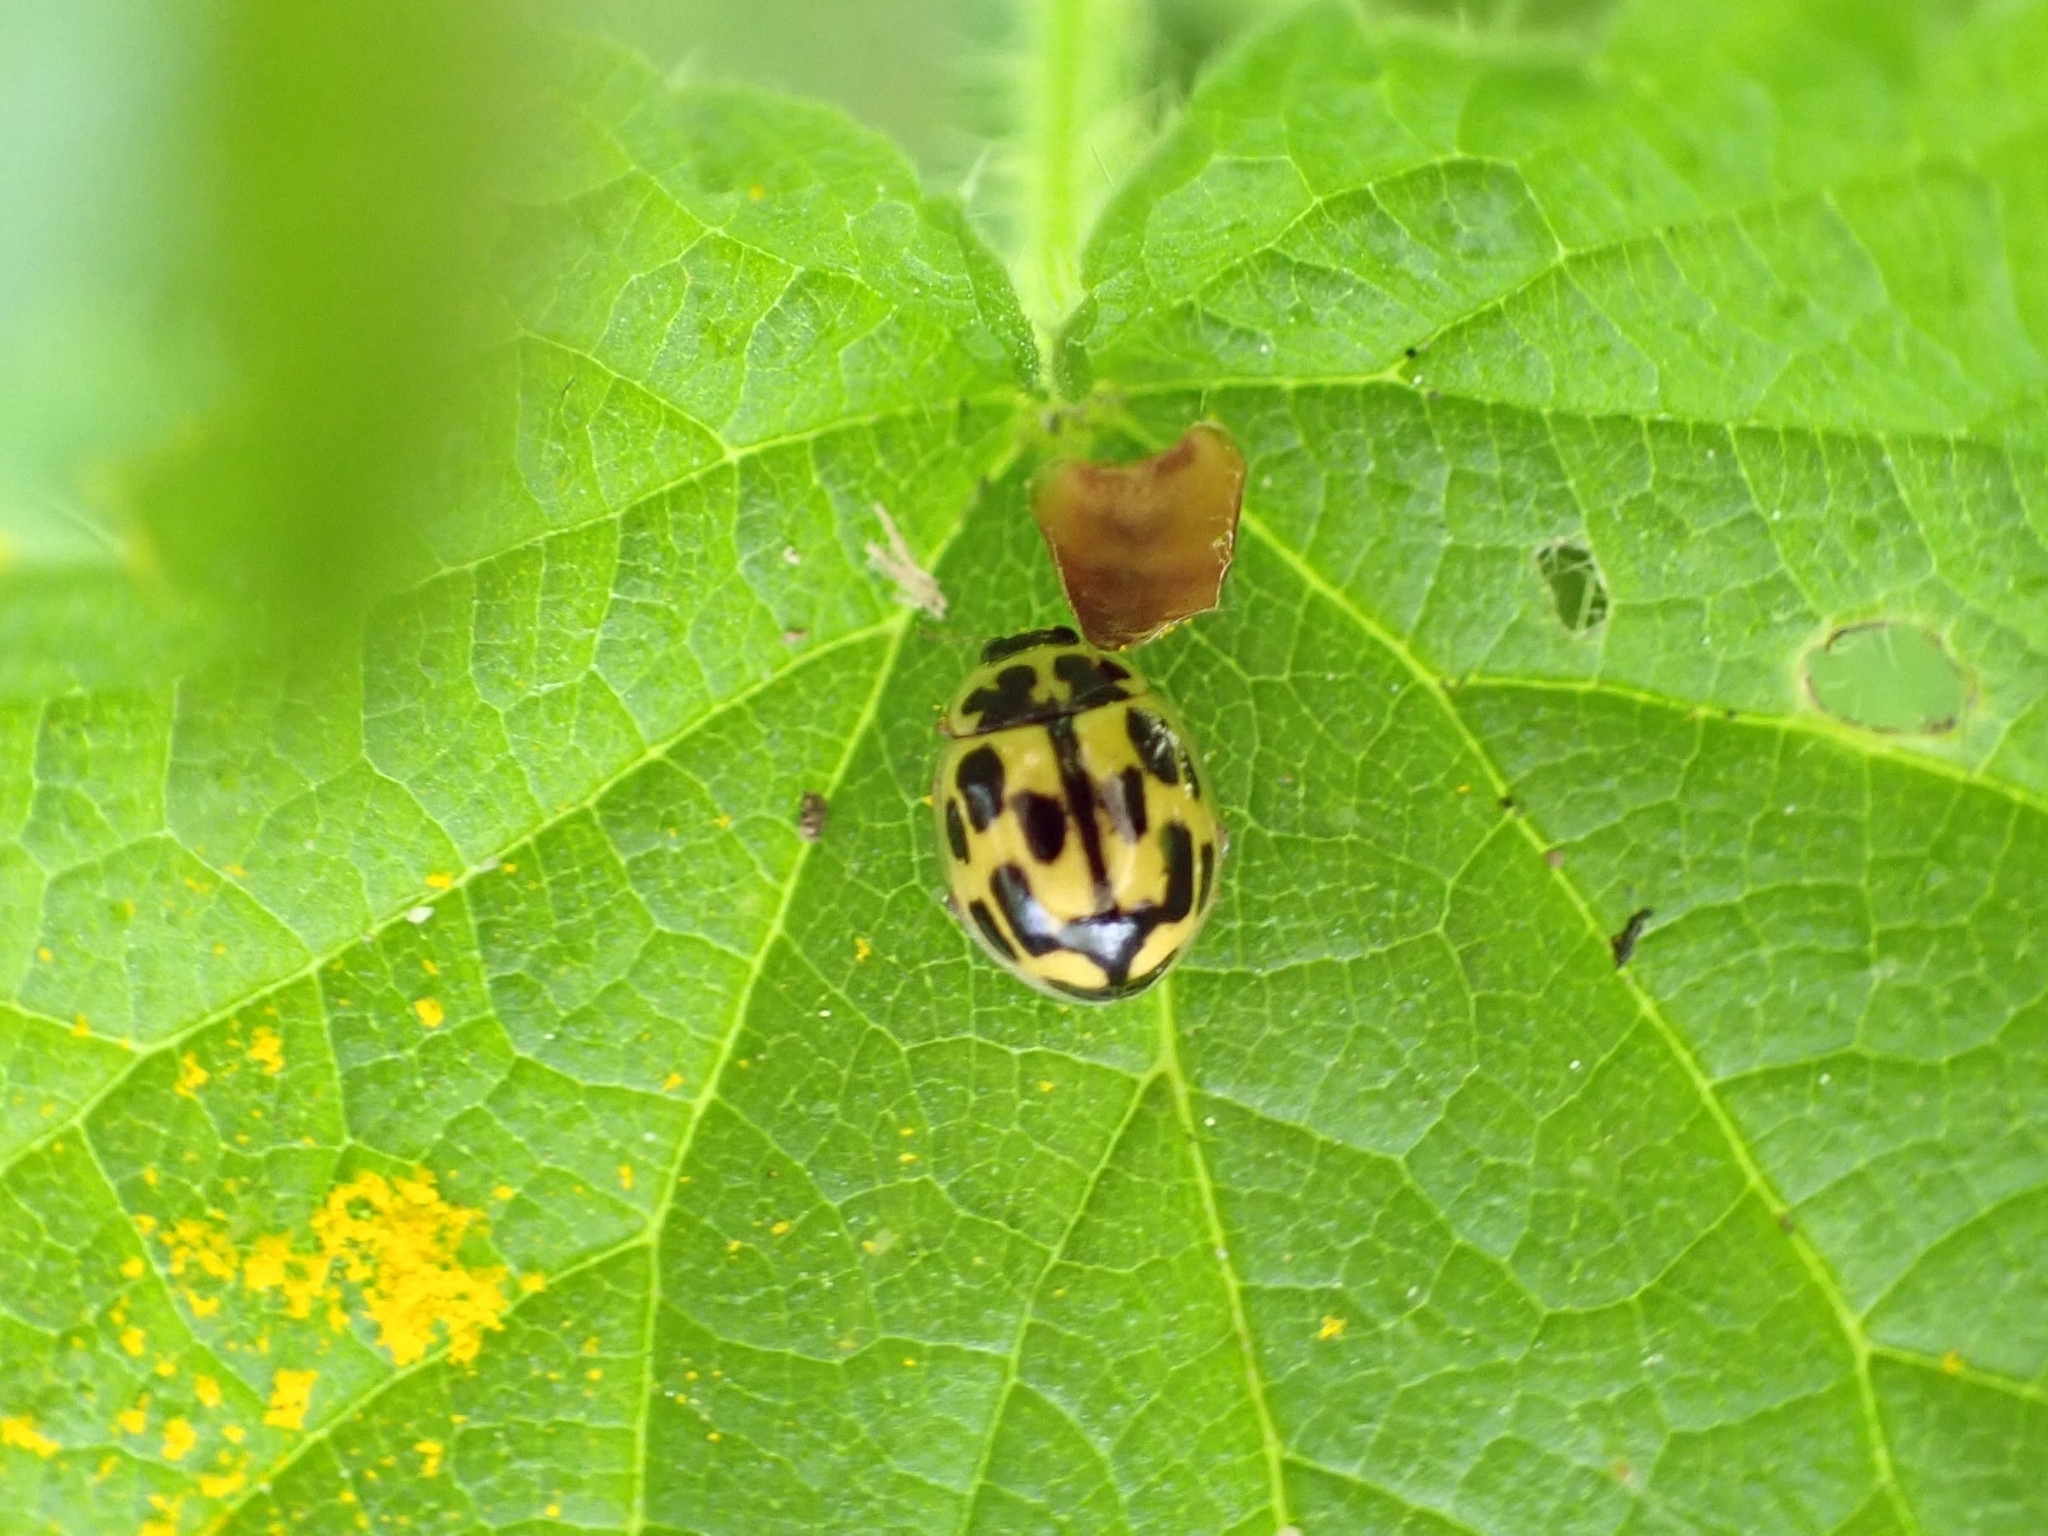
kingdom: Animalia
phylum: Arthropoda
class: Insecta
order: Coleoptera
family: Coccinellidae
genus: Propylaea
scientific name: Propylaea quatuordecimpunctata
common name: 14-spotted ladybird beetle
